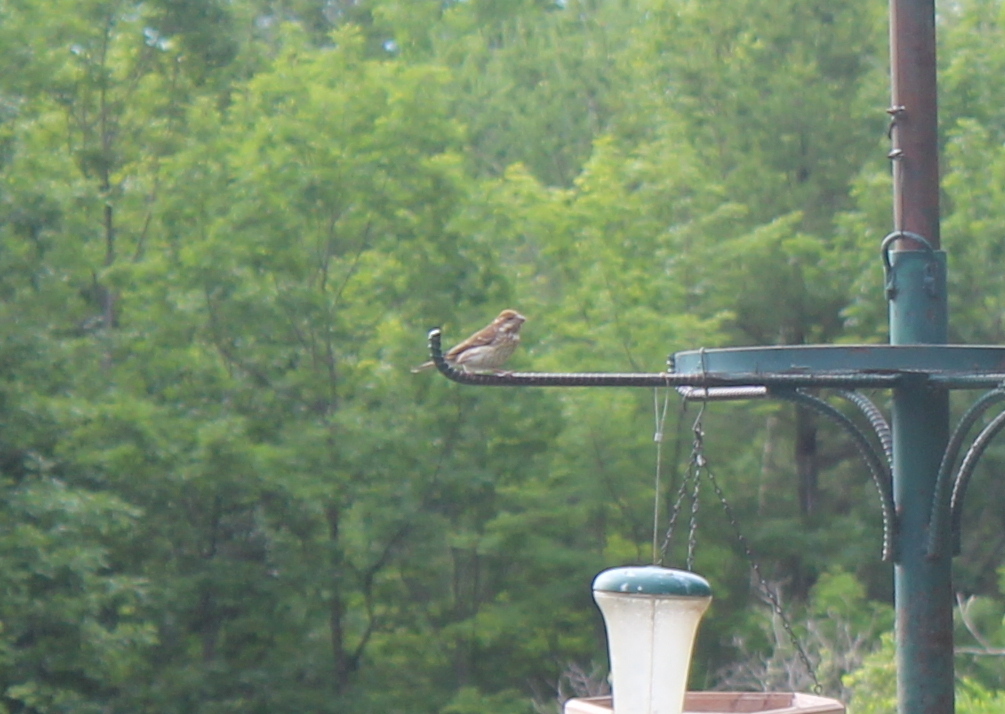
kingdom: Animalia
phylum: Chordata
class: Aves
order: Passeriformes
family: Fringillidae
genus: Haemorhous
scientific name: Haemorhous purpureus
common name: Purple finch
